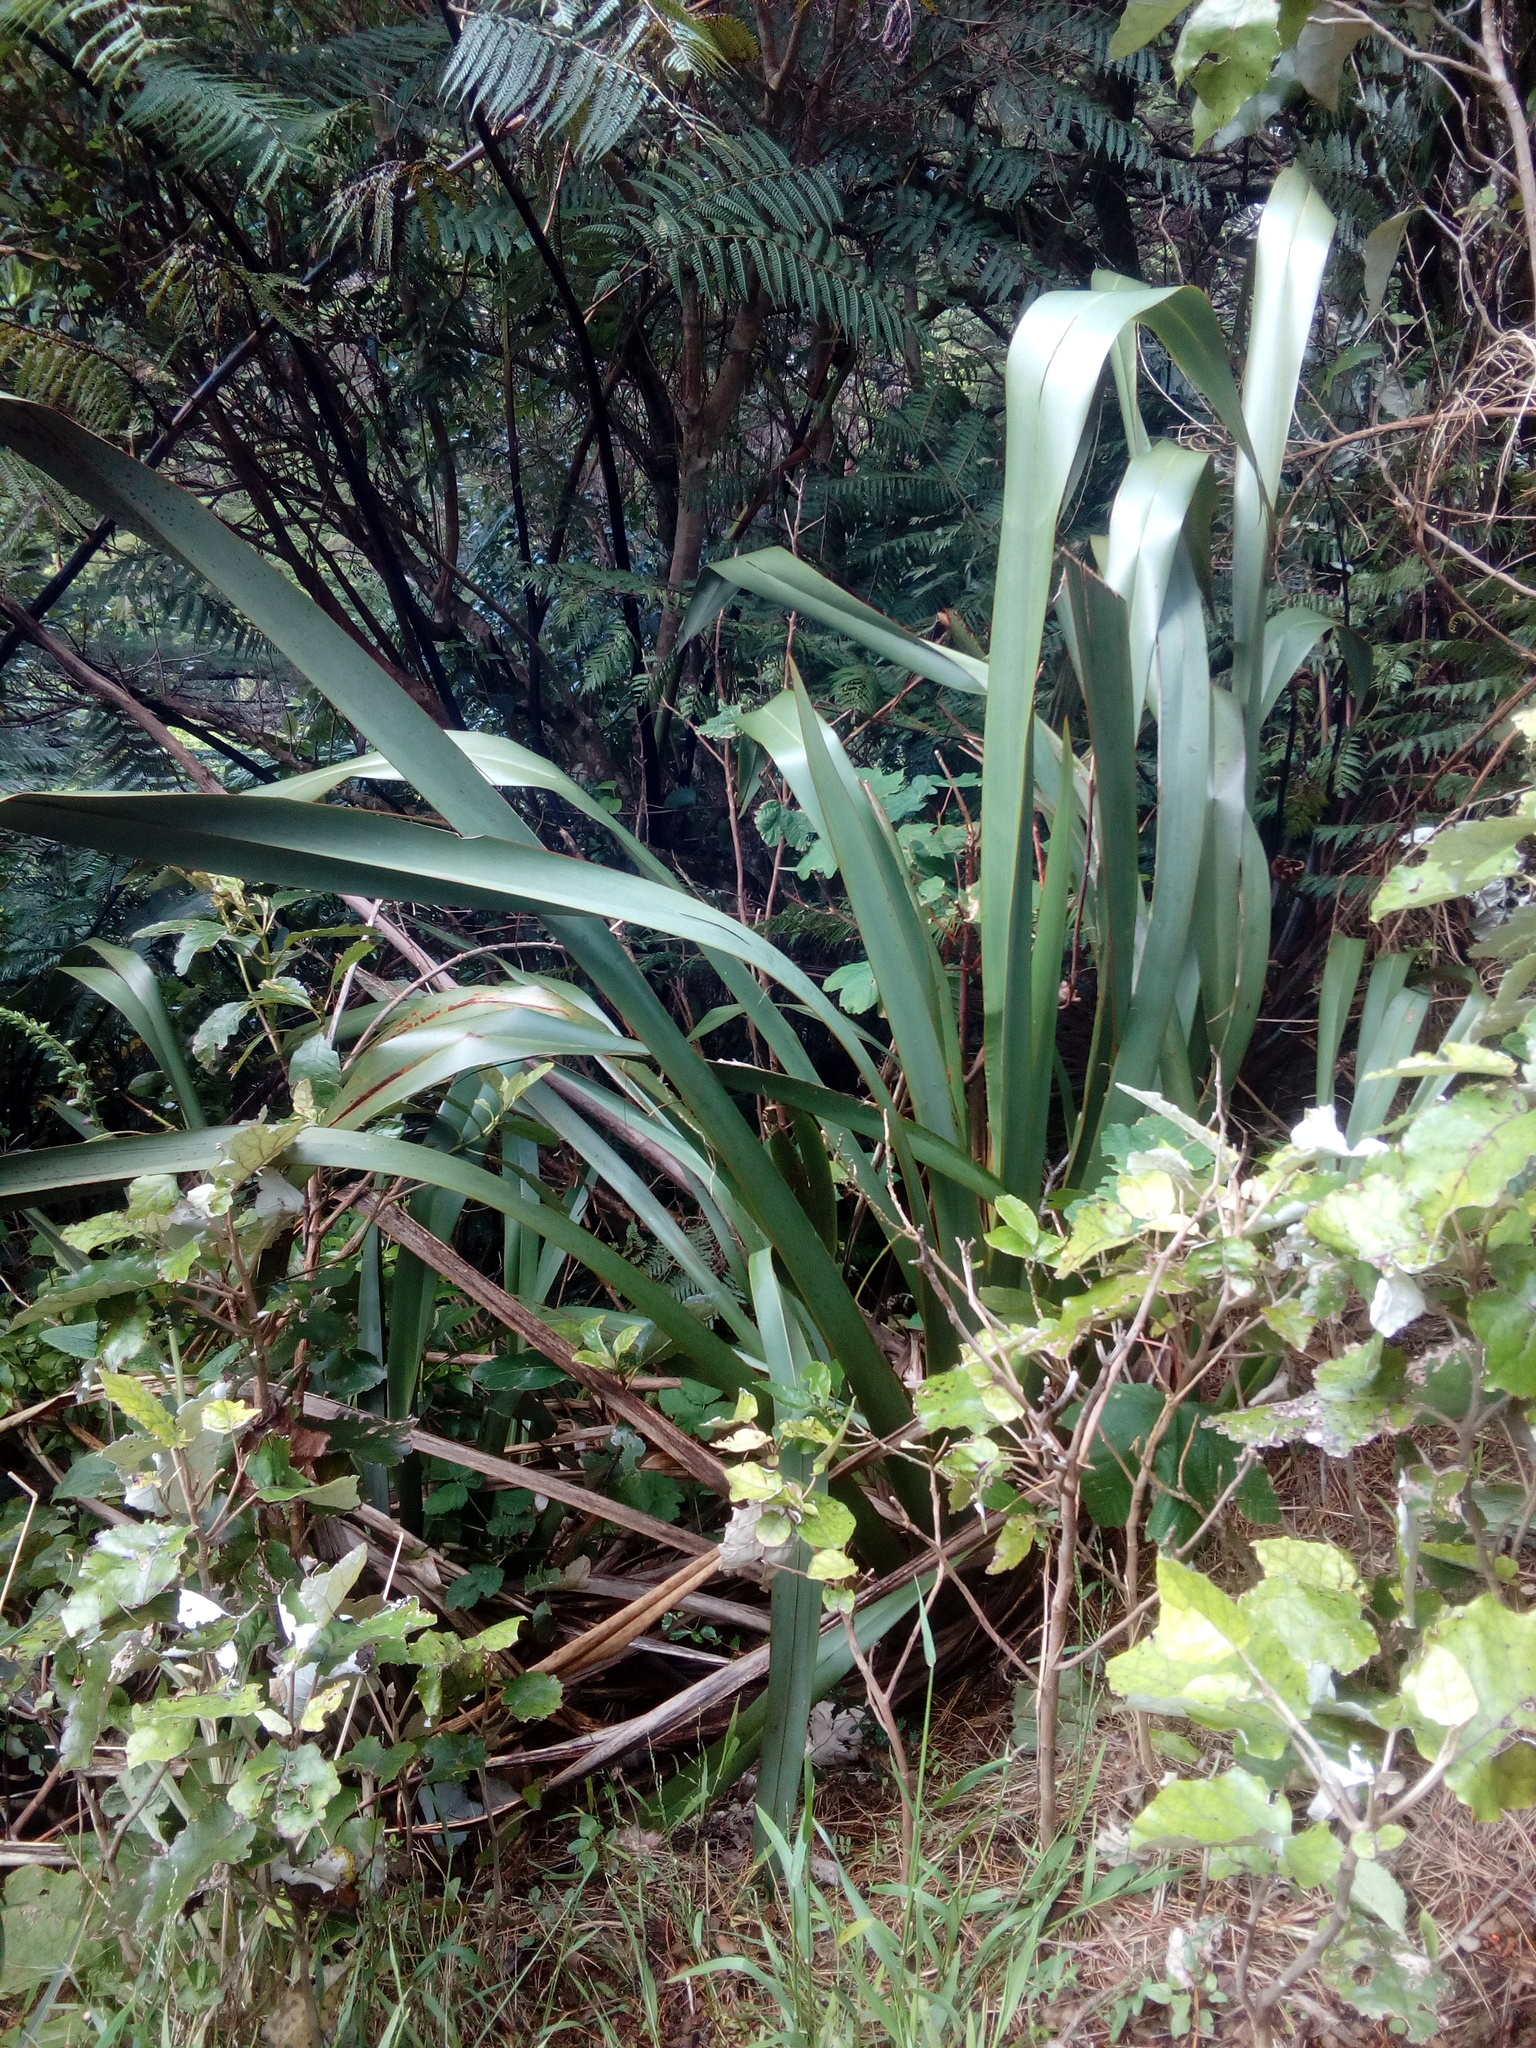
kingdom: Plantae
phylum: Tracheophyta
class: Liliopsida
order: Asparagales
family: Asphodelaceae
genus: Phormium
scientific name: Phormium tenax
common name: New zealand flax
